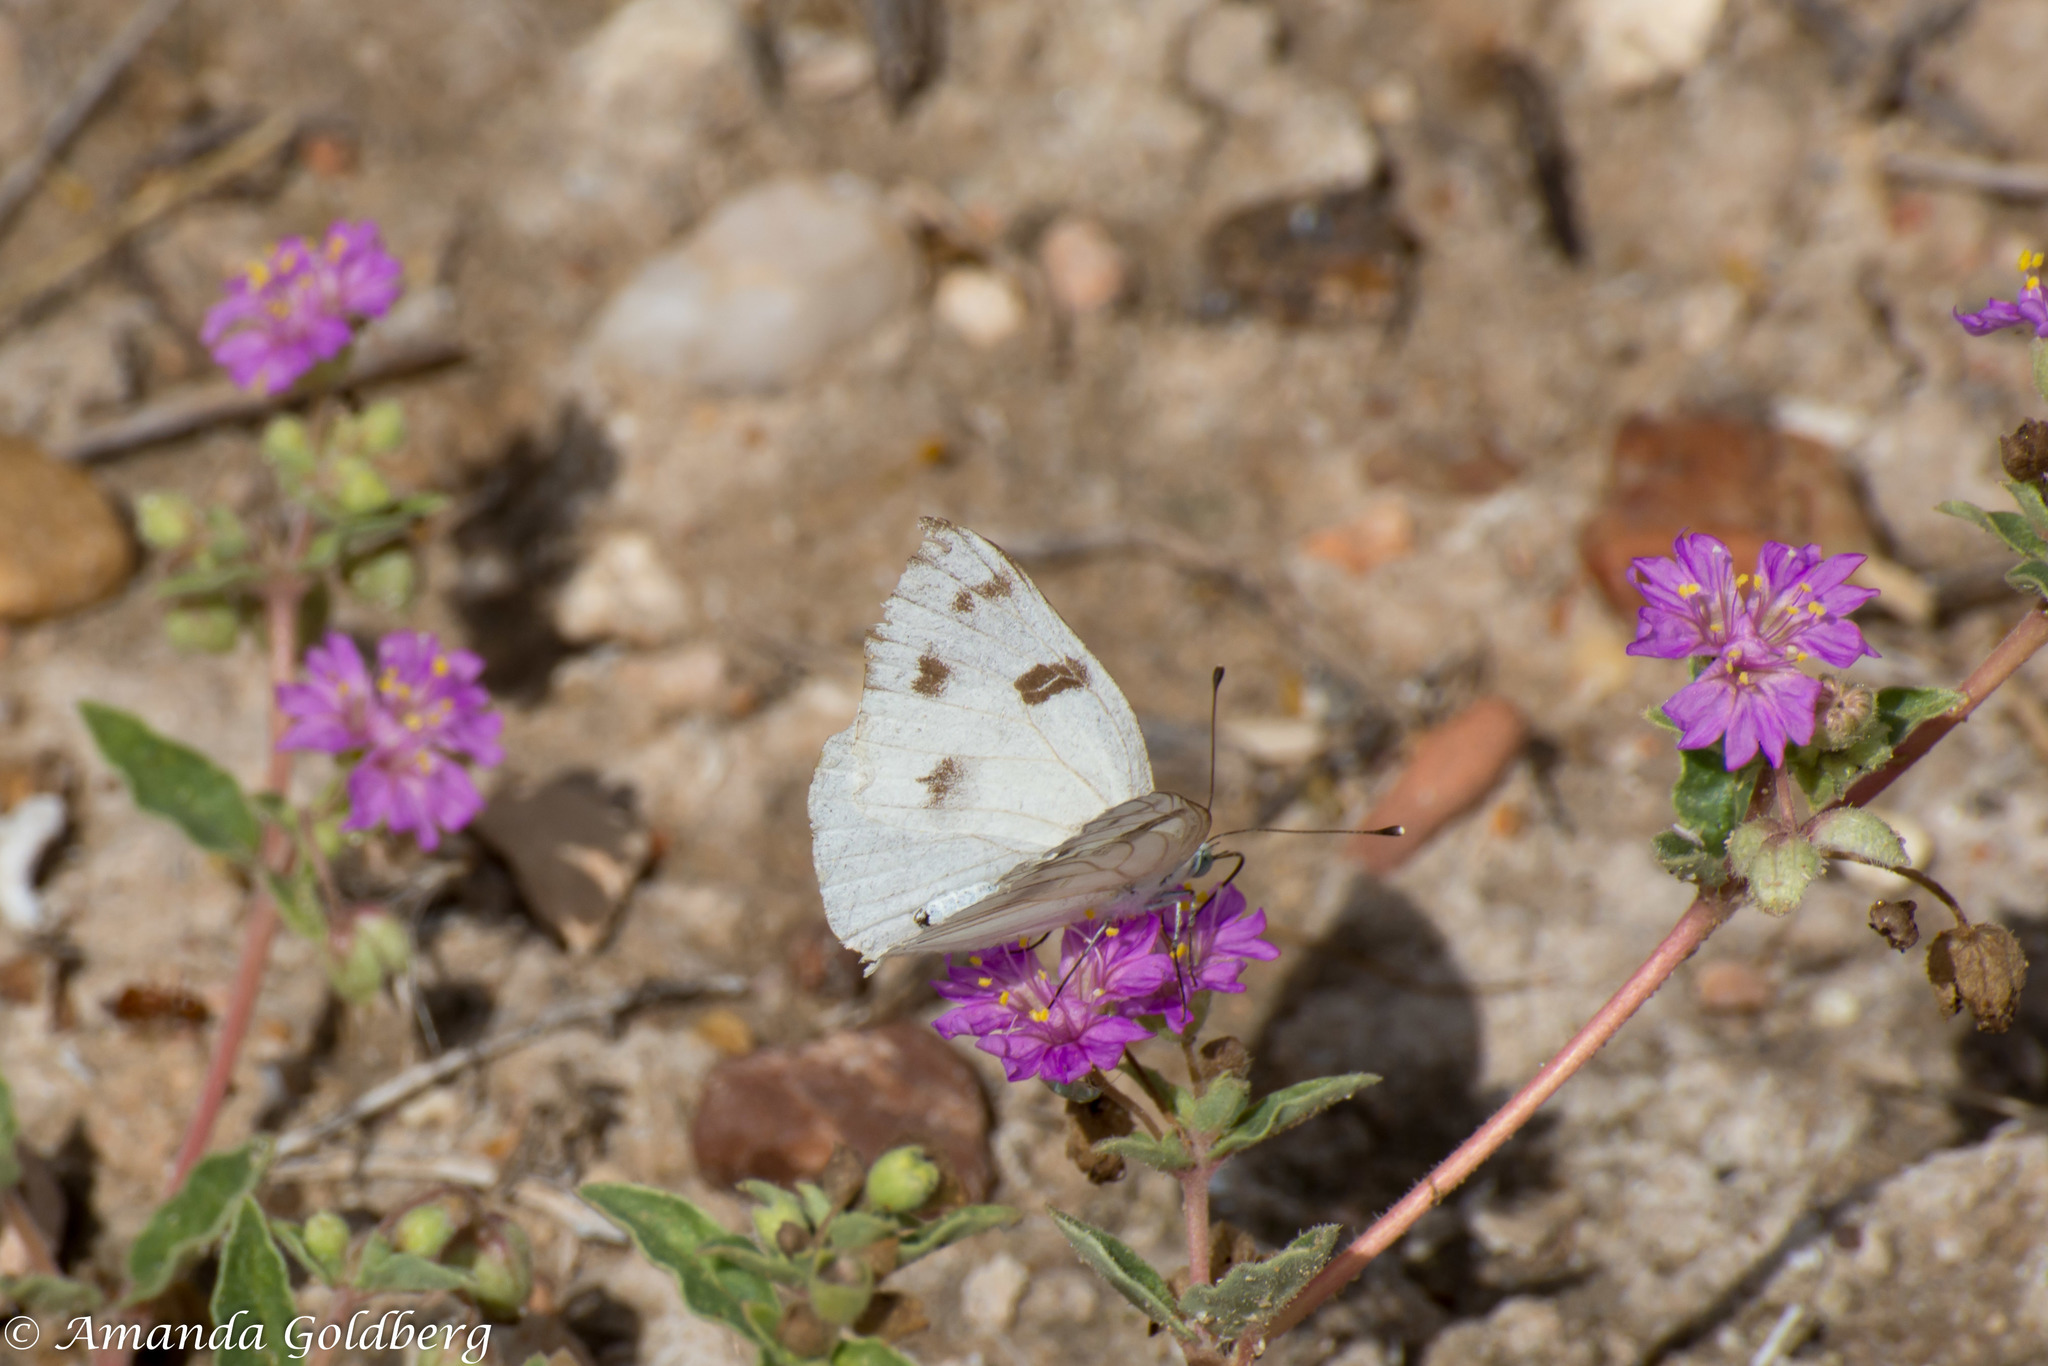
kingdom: Animalia
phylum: Arthropoda
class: Insecta
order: Lepidoptera
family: Pieridae
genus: Pontia
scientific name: Pontia protodice
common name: Checkered white
